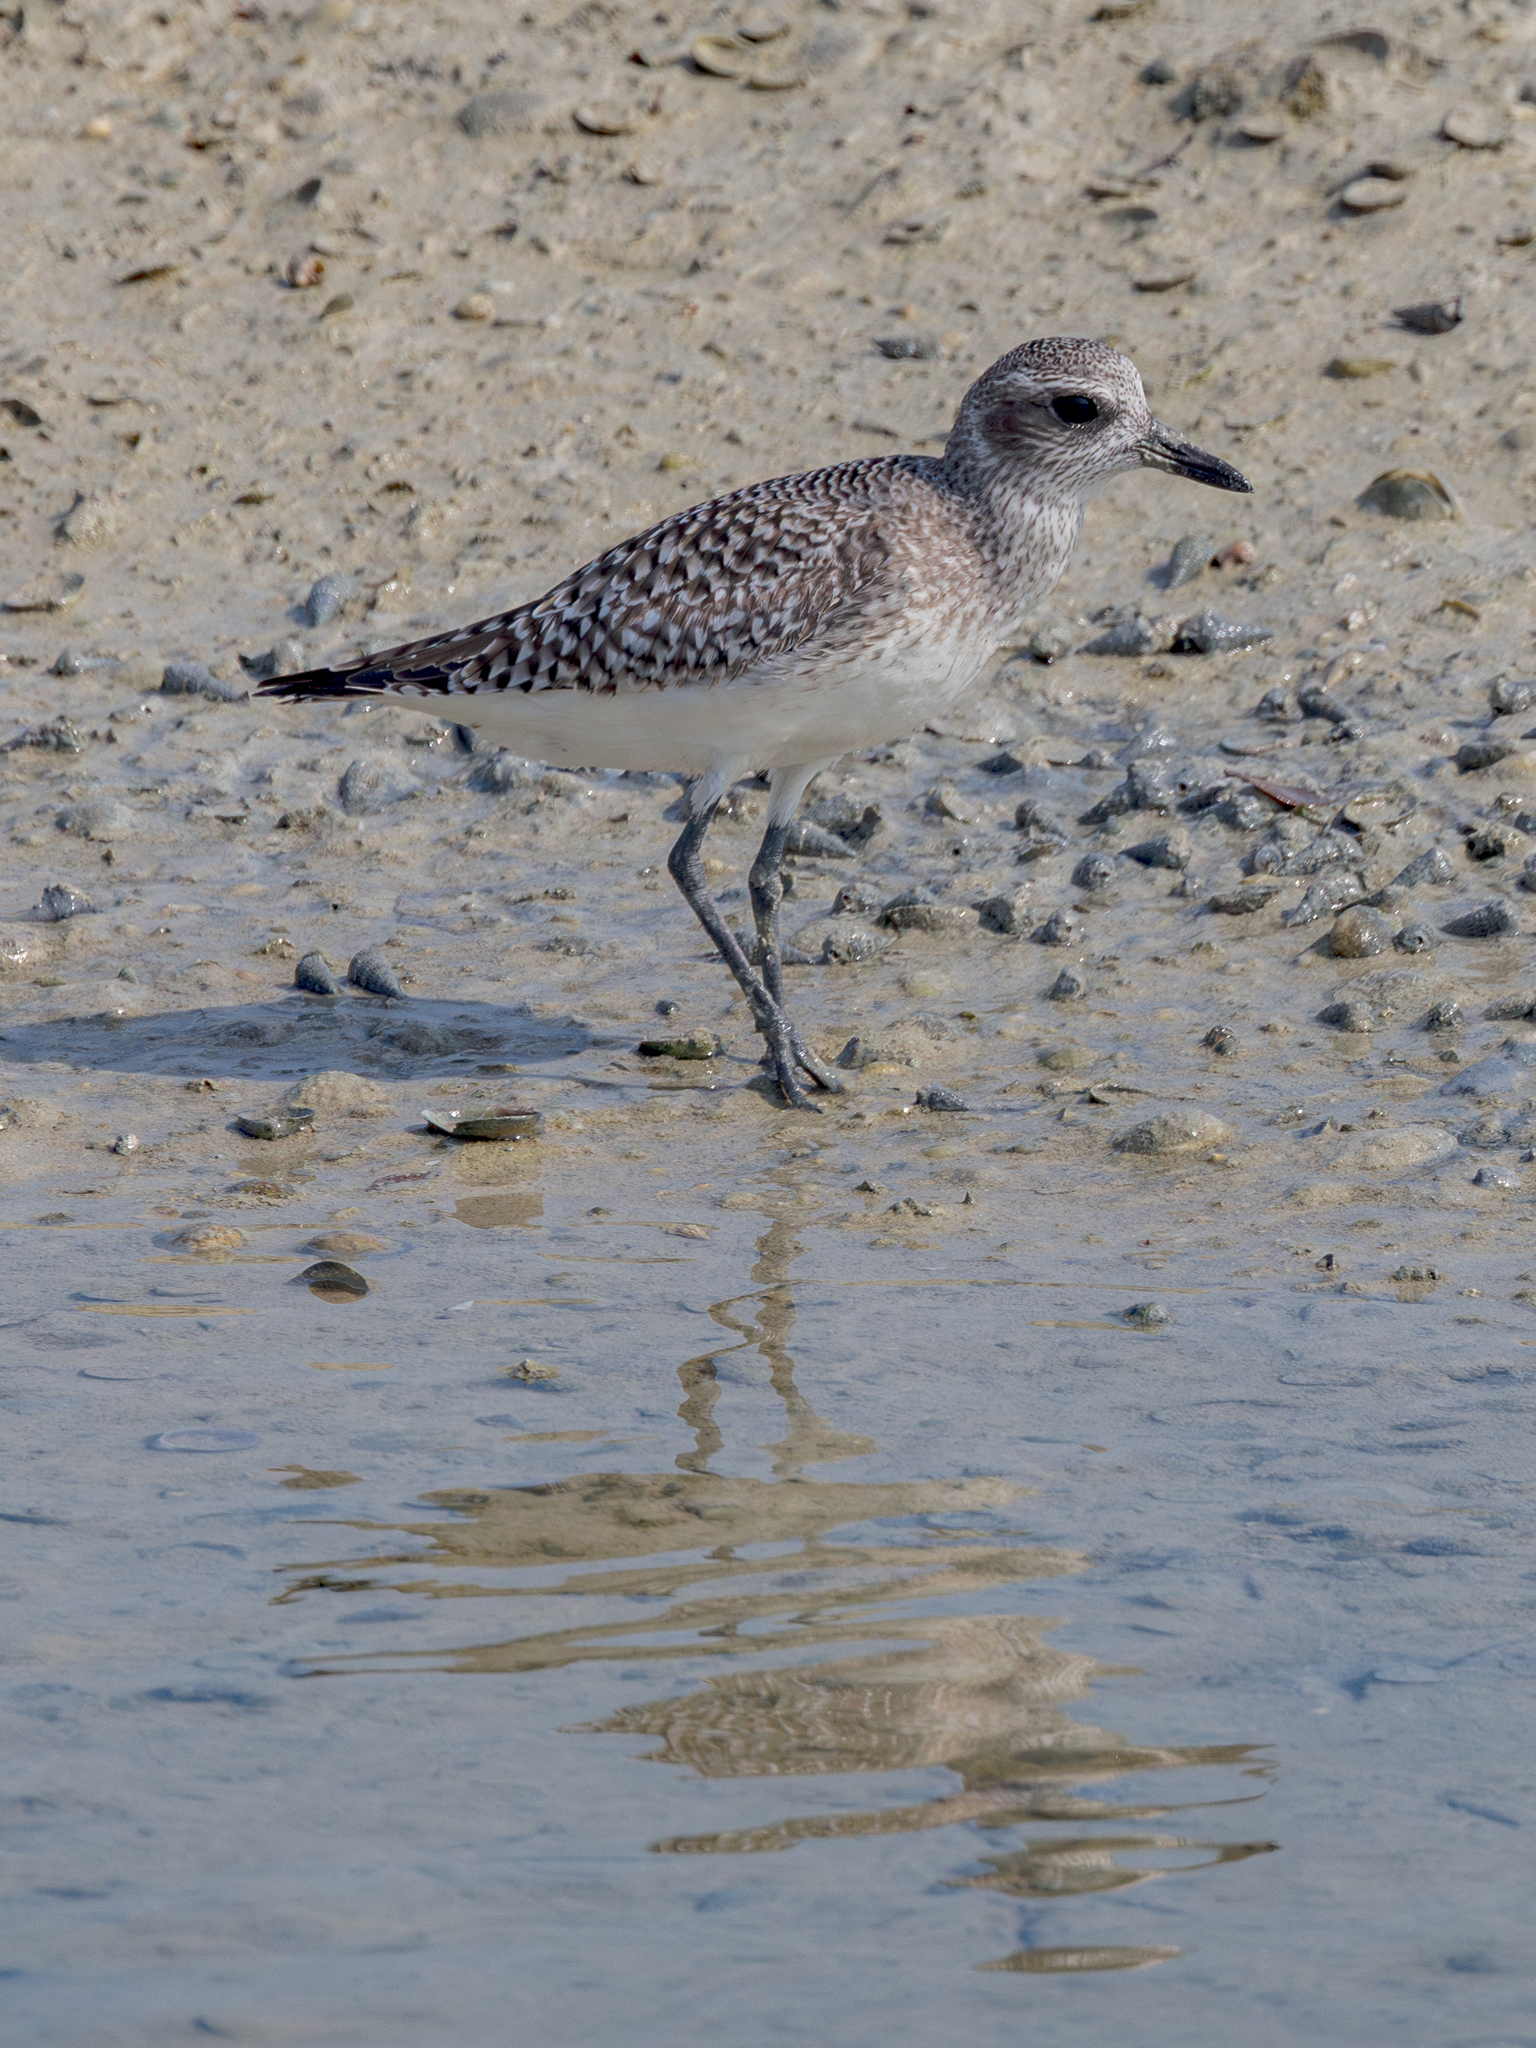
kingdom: Animalia
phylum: Chordata
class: Aves
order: Charadriiformes
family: Charadriidae
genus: Pluvialis
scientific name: Pluvialis squatarola
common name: Grey plover
